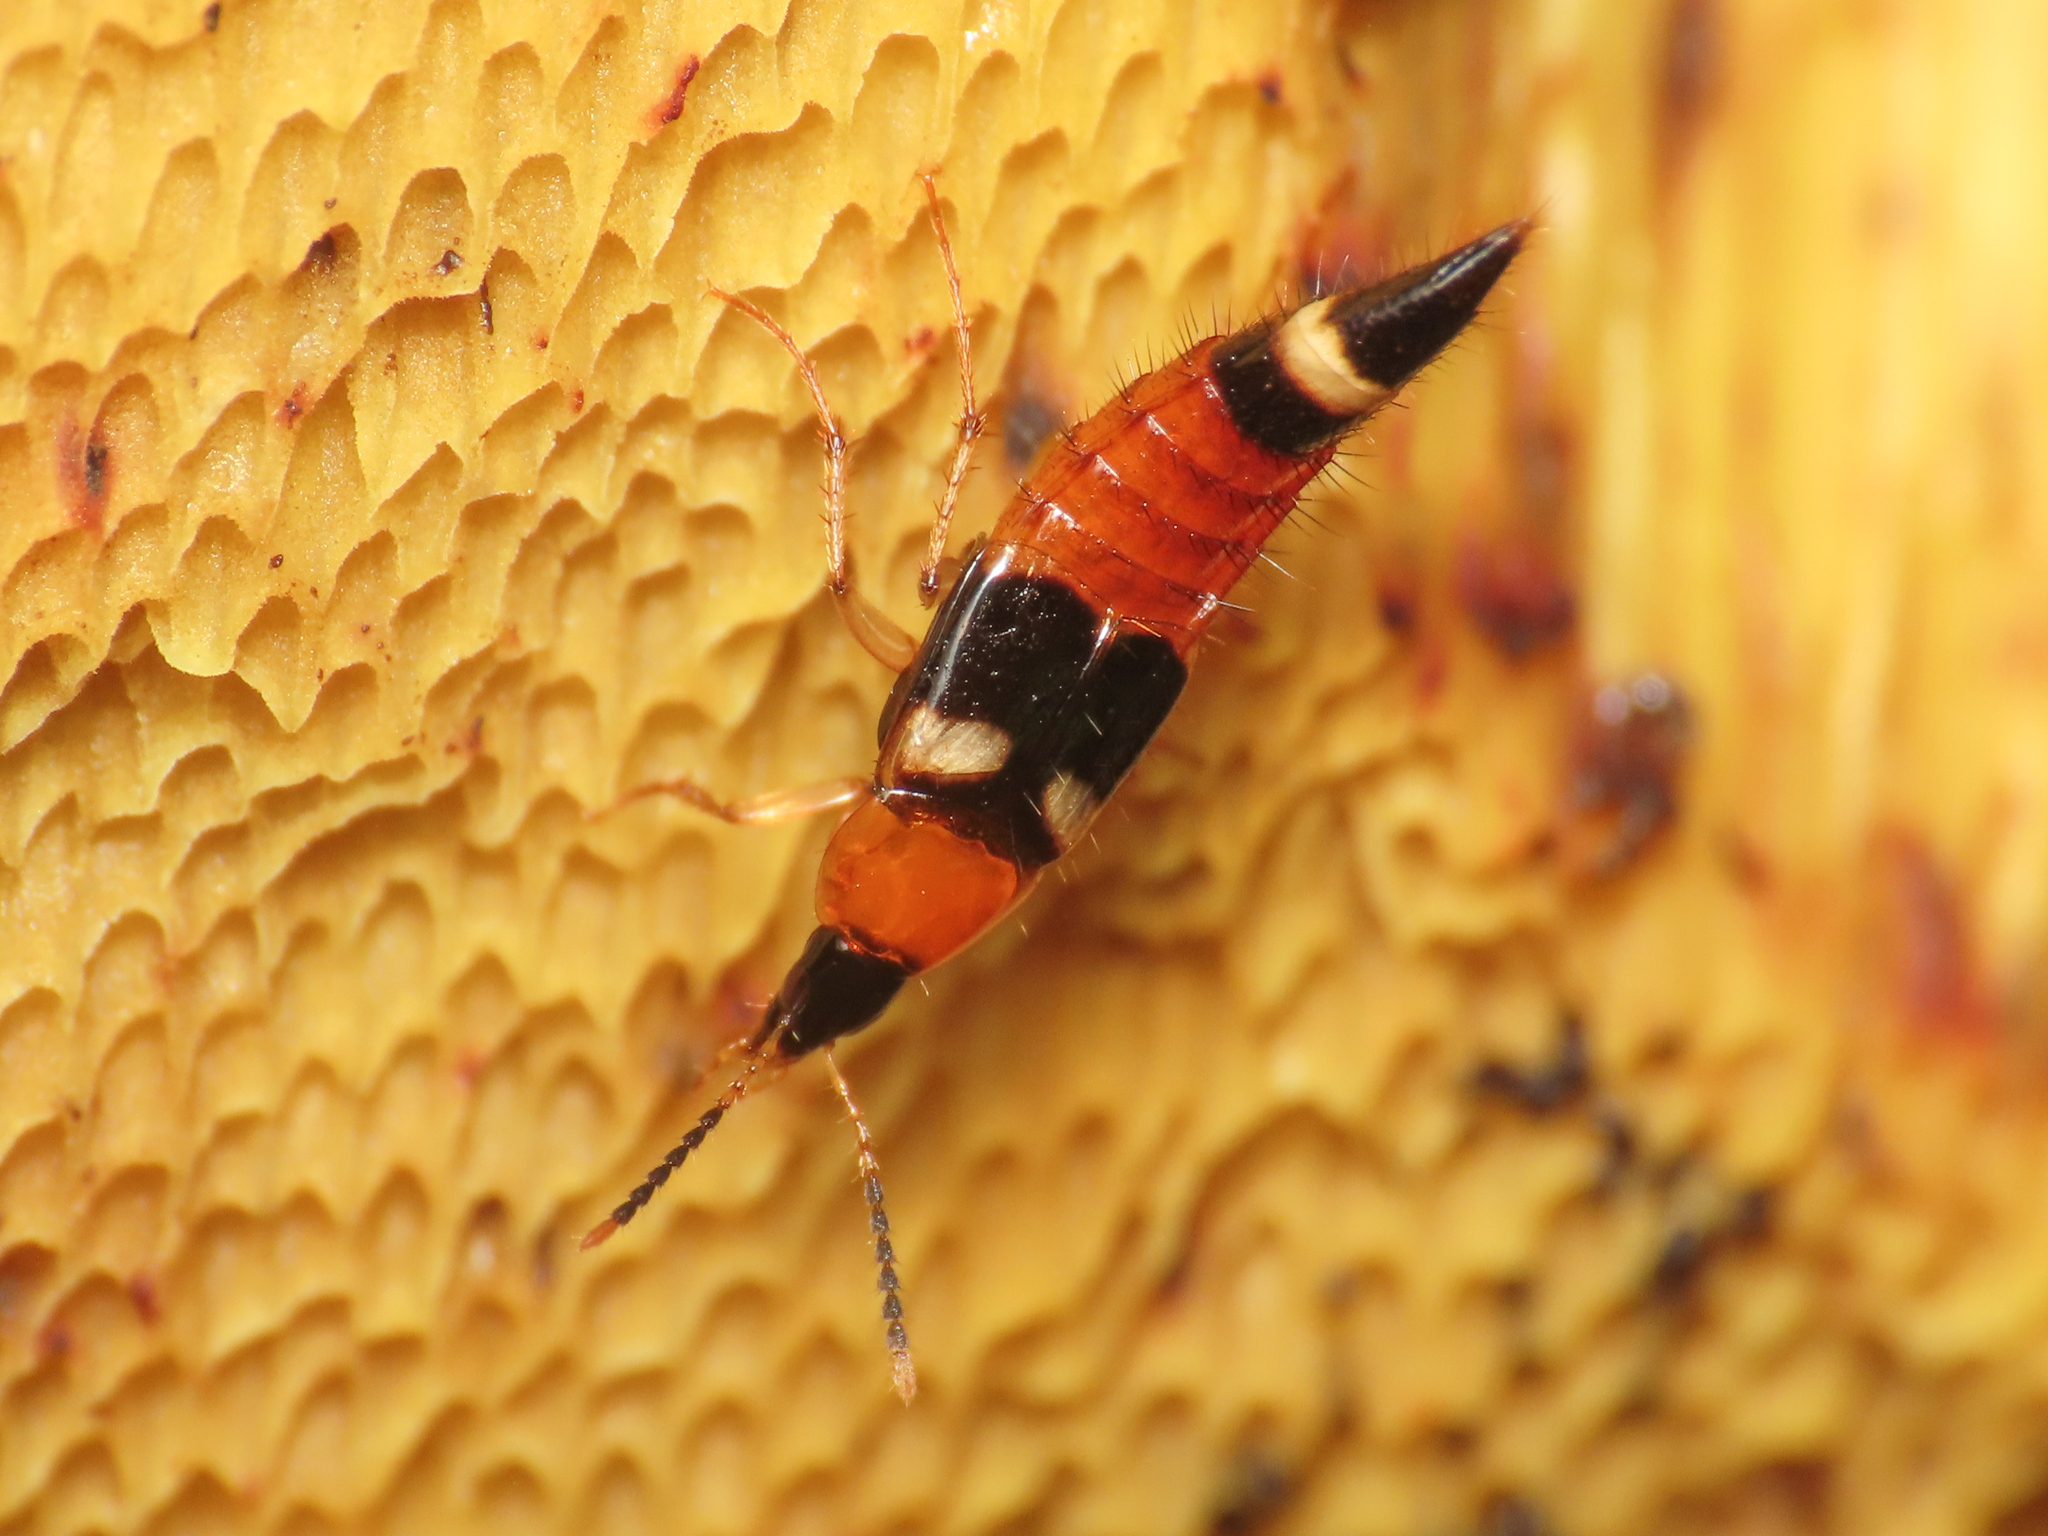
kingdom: Animalia
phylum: Arthropoda
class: Insecta
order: Coleoptera
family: Staphylinidae
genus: Bobitobus
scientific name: Bobitobus lunulatus
